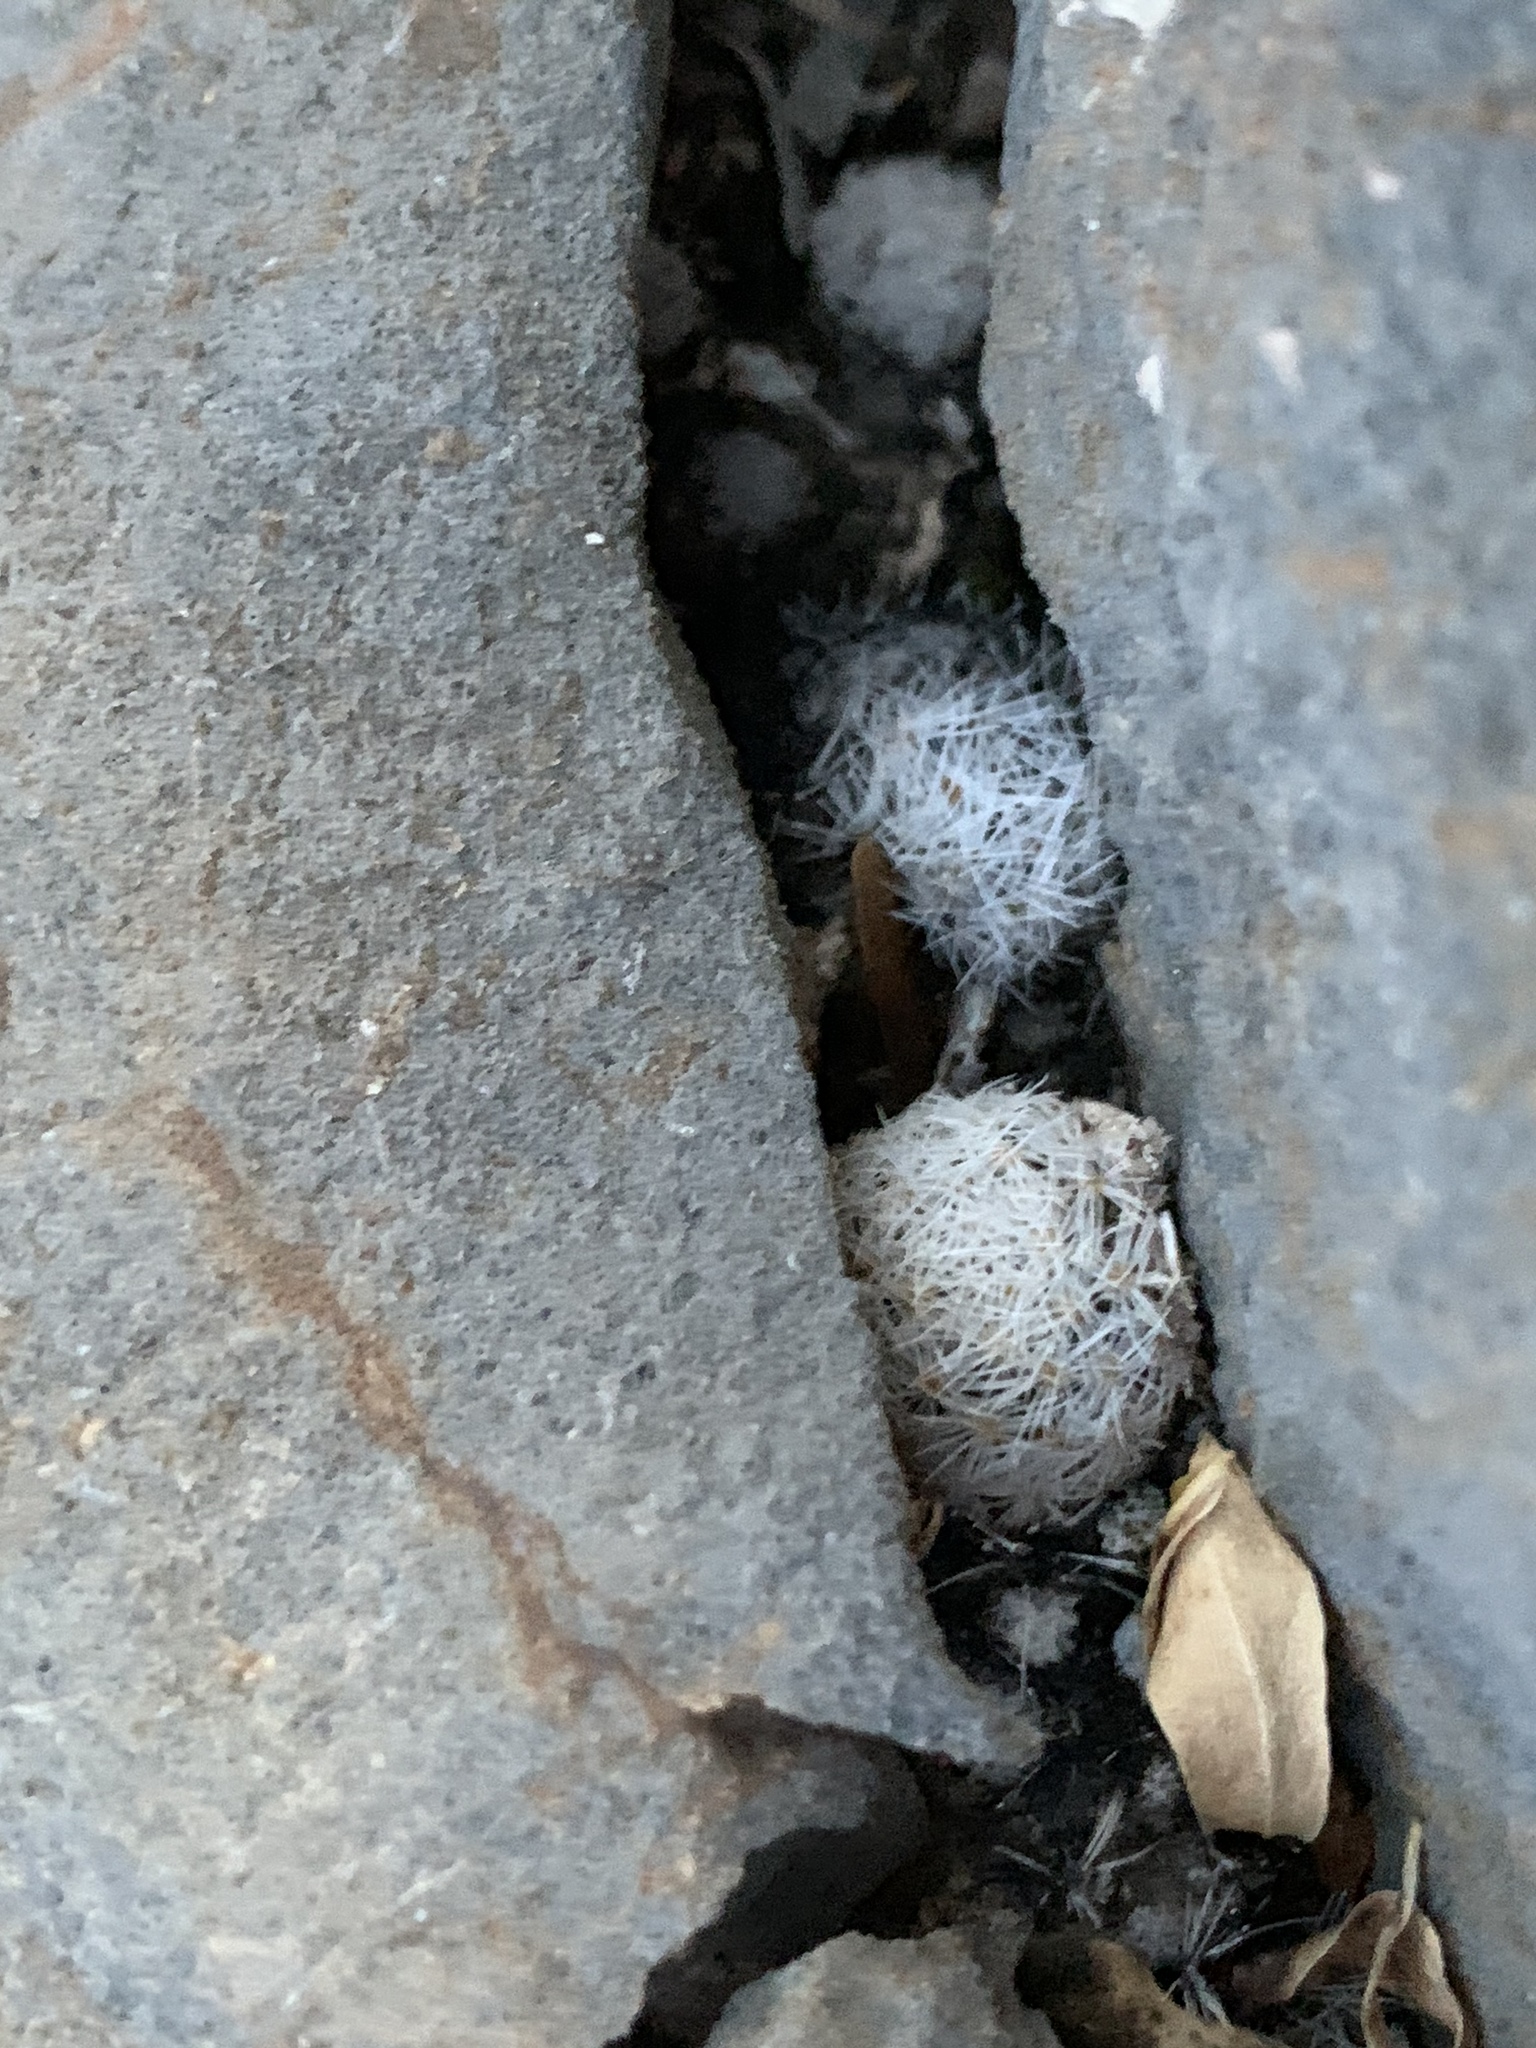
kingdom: Plantae
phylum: Tracheophyta
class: Magnoliopsida
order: Caryophyllales
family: Cactaceae
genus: Mammillaria
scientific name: Mammillaria lasiacantha
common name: Lace-spine nipple cactus
